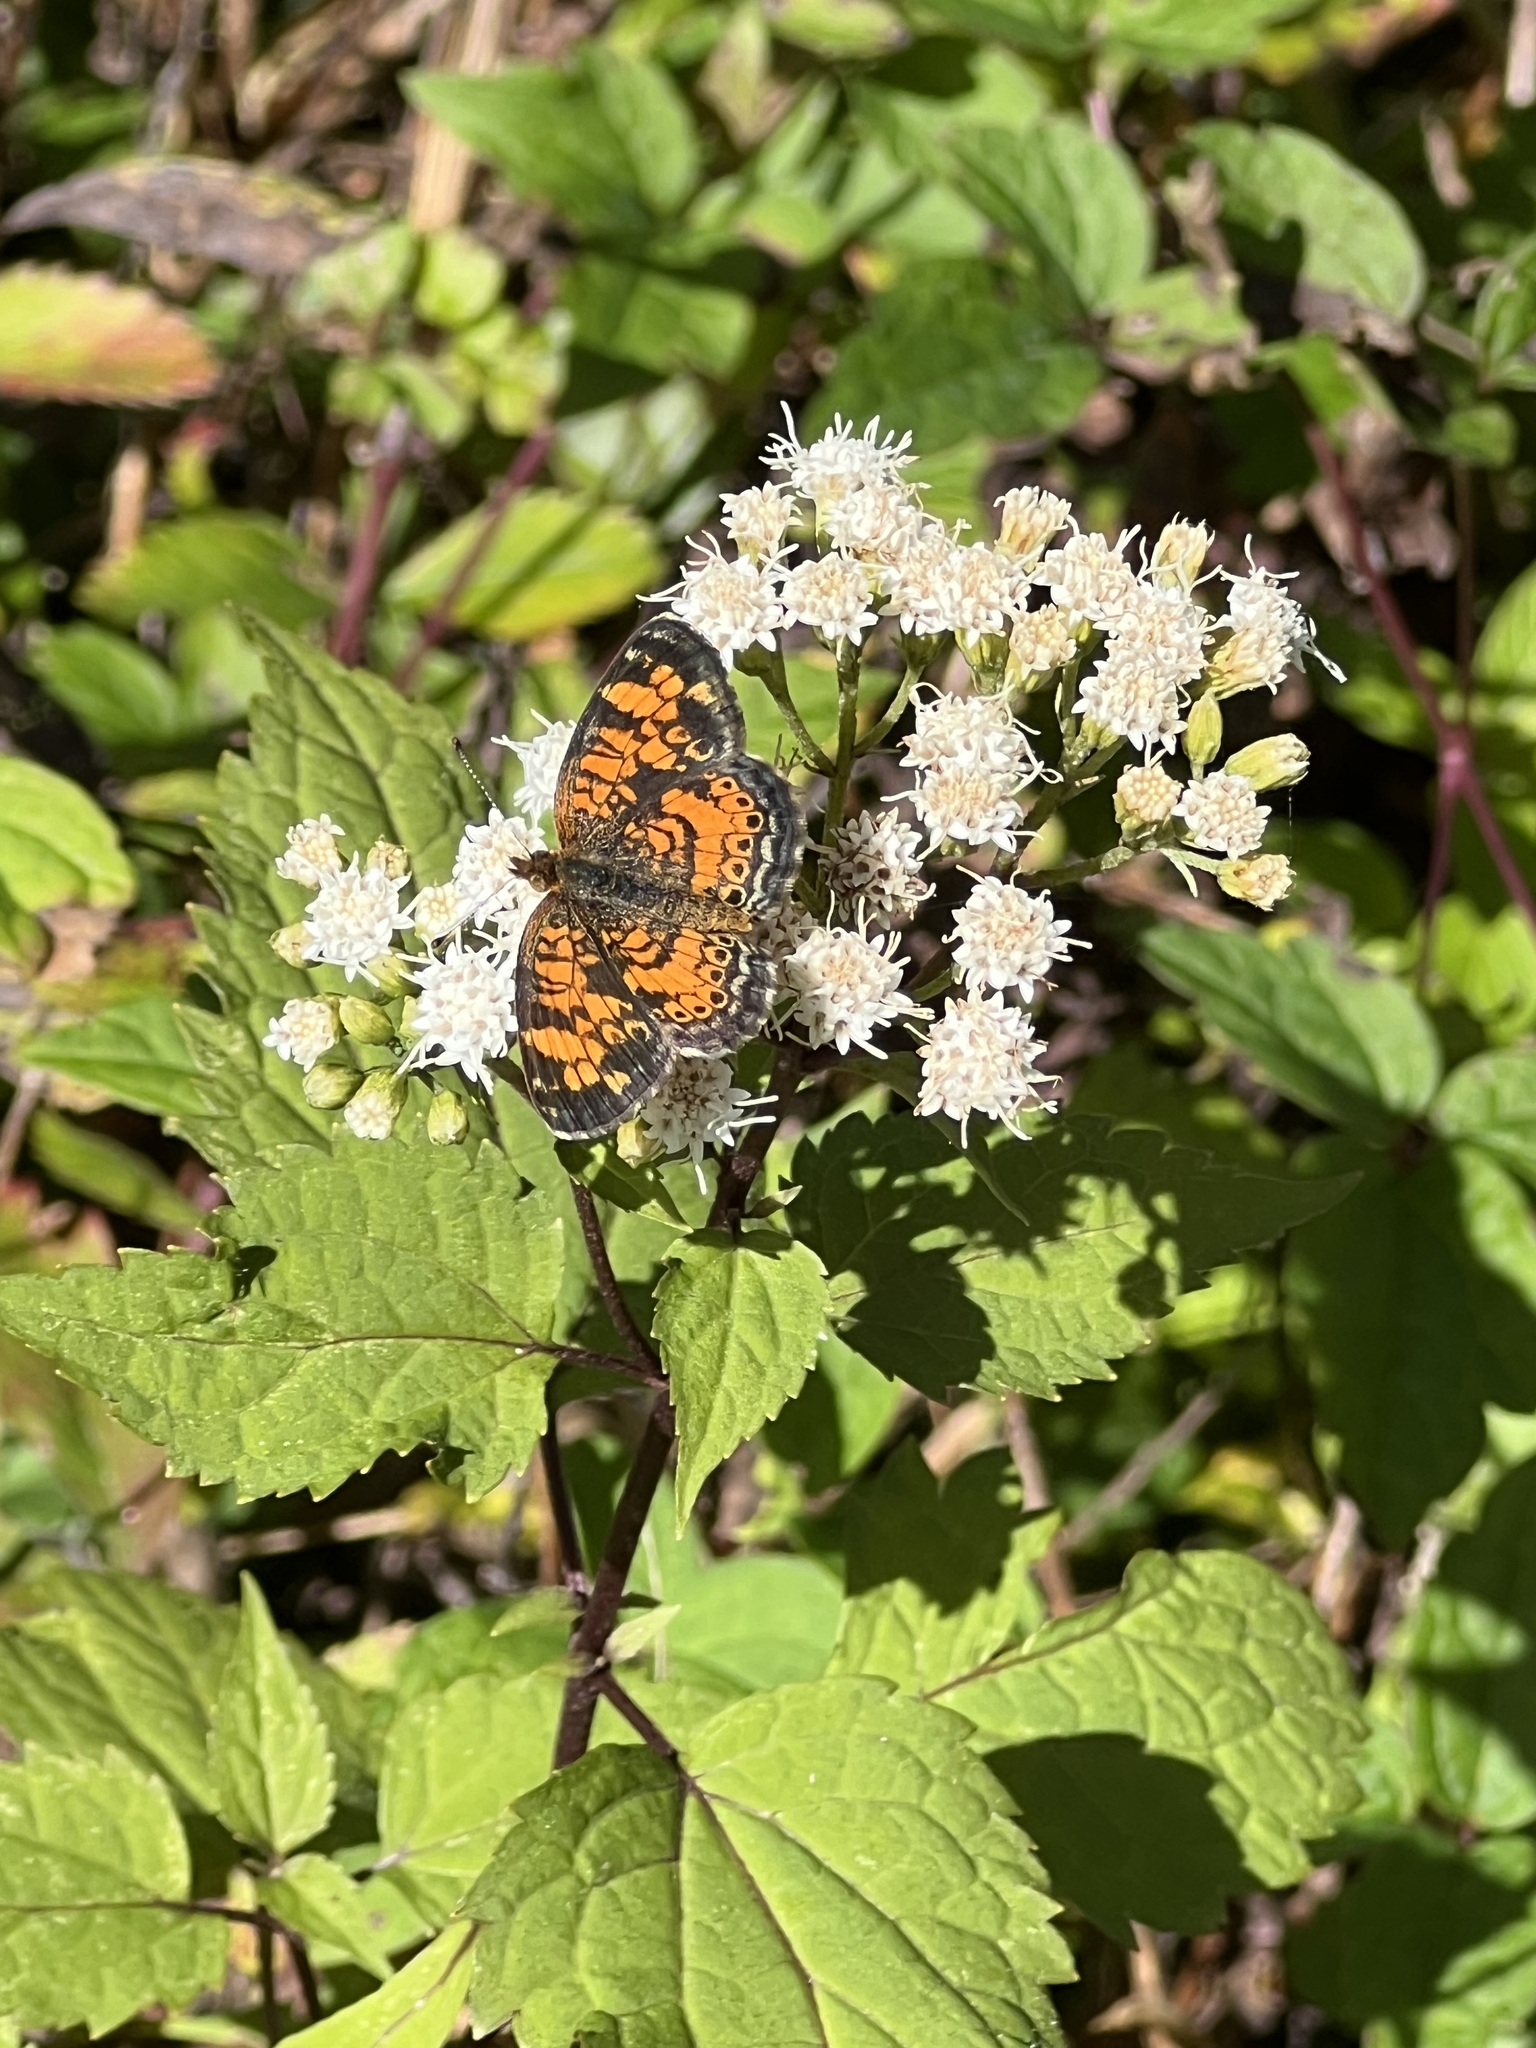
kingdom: Animalia
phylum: Arthropoda
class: Insecta
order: Lepidoptera
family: Nymphalidae
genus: Phyciodes
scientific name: Phyciodes tharos
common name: Pearl crescent
